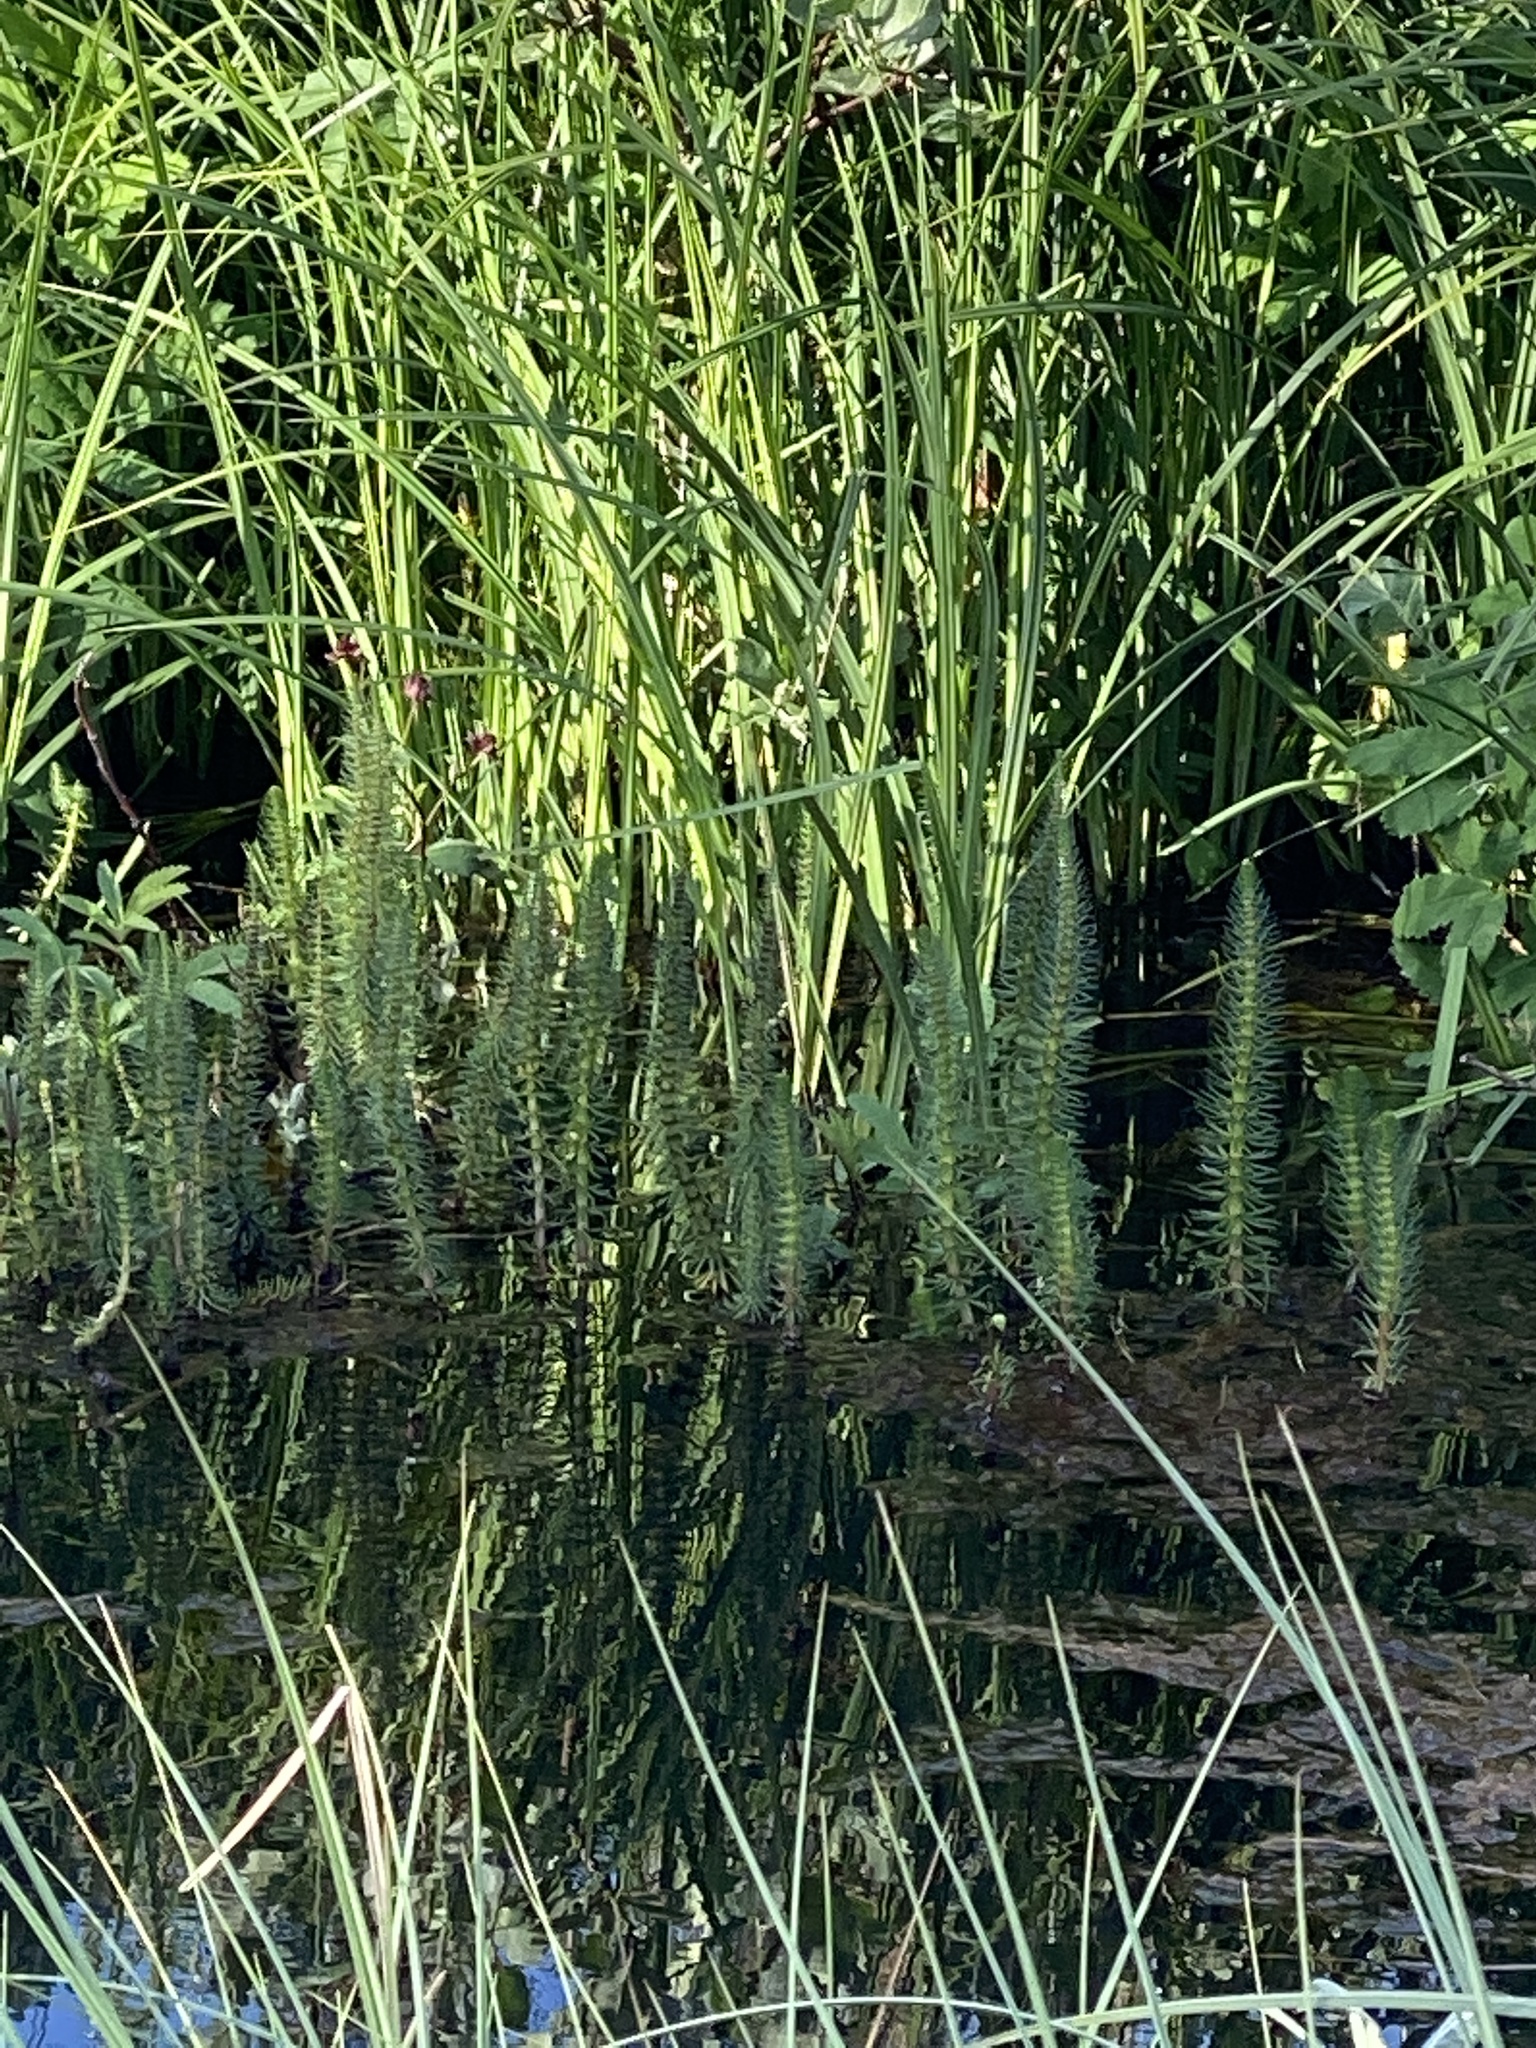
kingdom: Plantae
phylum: Tracheophyta
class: Magnoliopsida
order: Lamiales
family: Plantaginaceae
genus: Hippuris
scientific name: Hippuris vulgaris
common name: Mare's-tail
